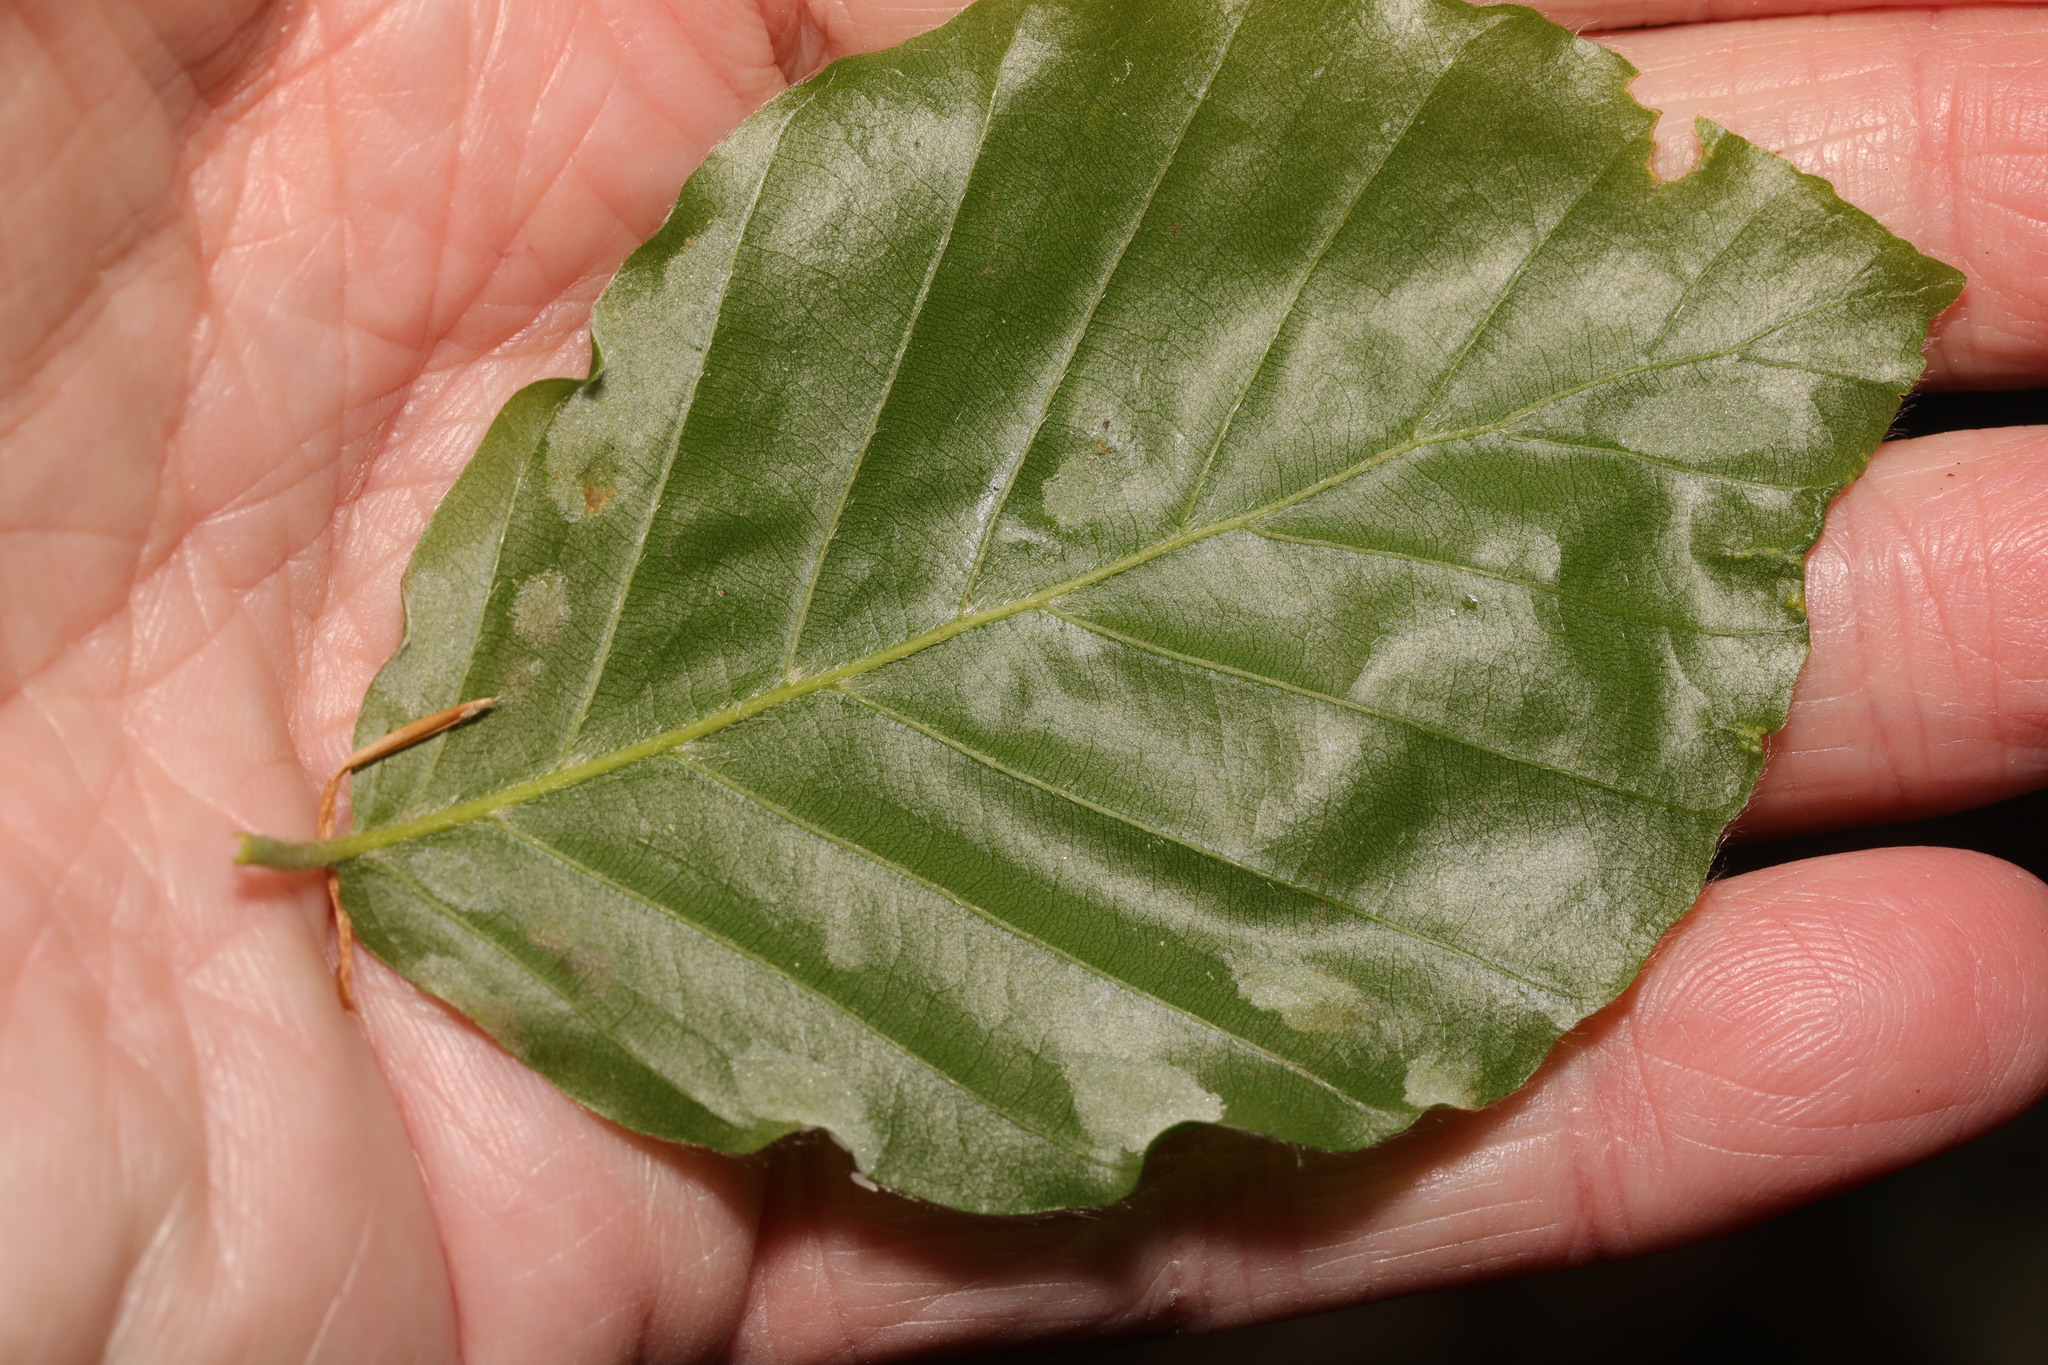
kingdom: Animalia
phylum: Arthropoda
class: Arachnida
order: Trombidiformes
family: Eriophyidae
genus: Aceria
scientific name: Aceria nervisequa
